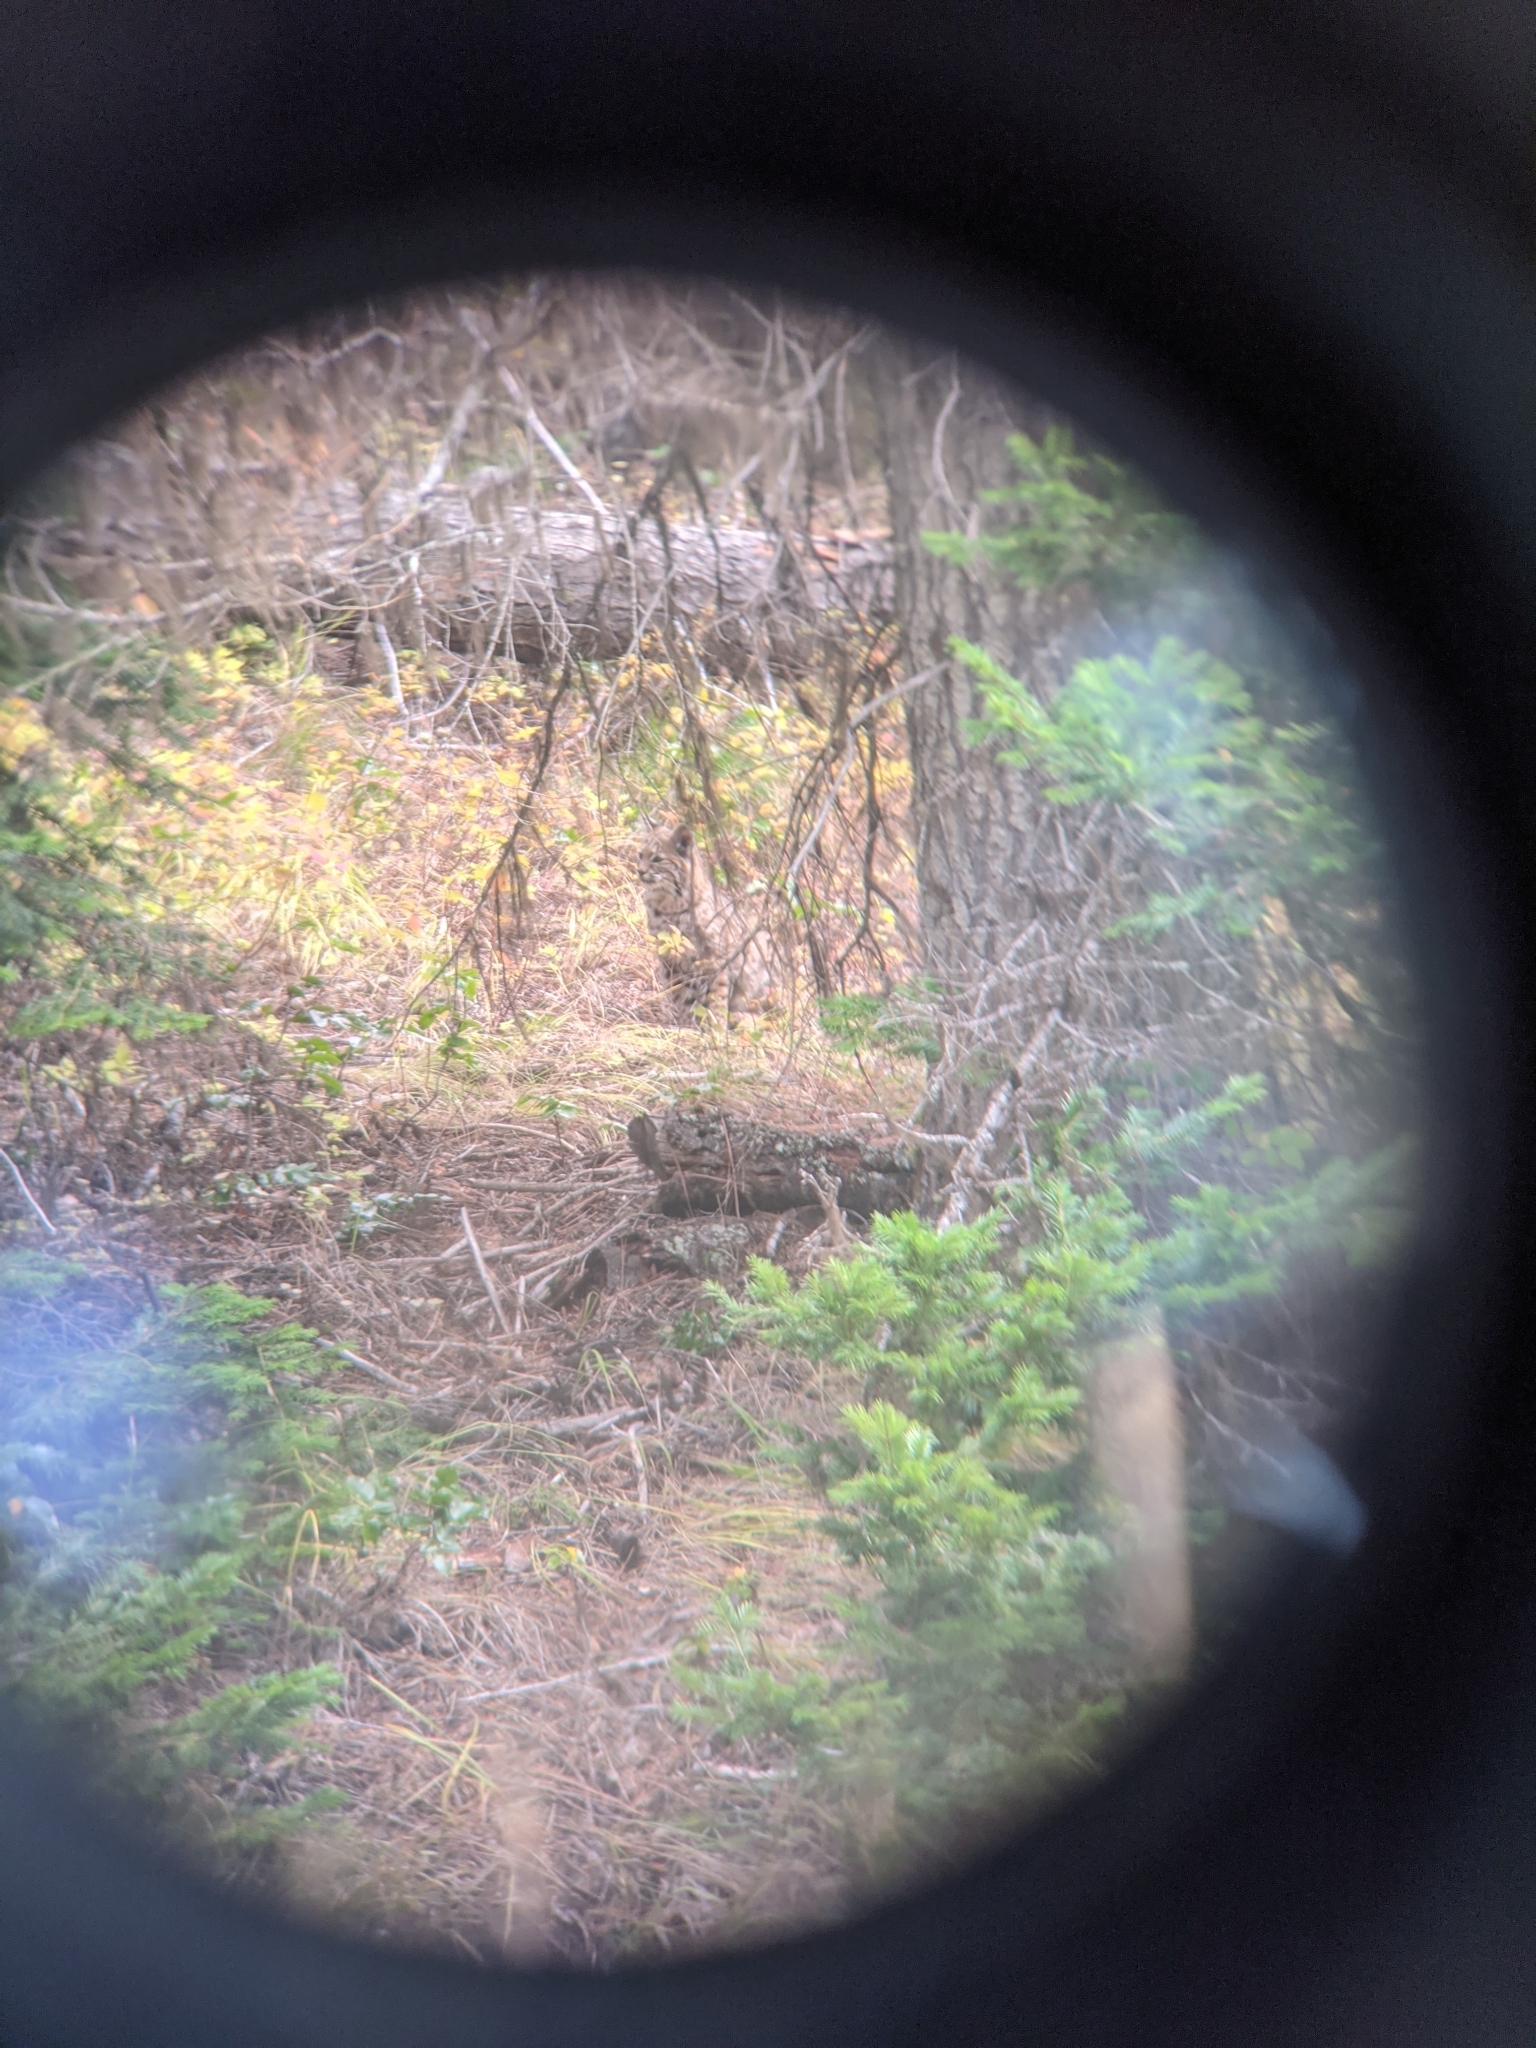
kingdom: Animalia
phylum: Chordata
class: Mammalia
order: Carnivora
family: Felidae
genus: Lynx
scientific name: Lynx rufus
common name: Bobcat
